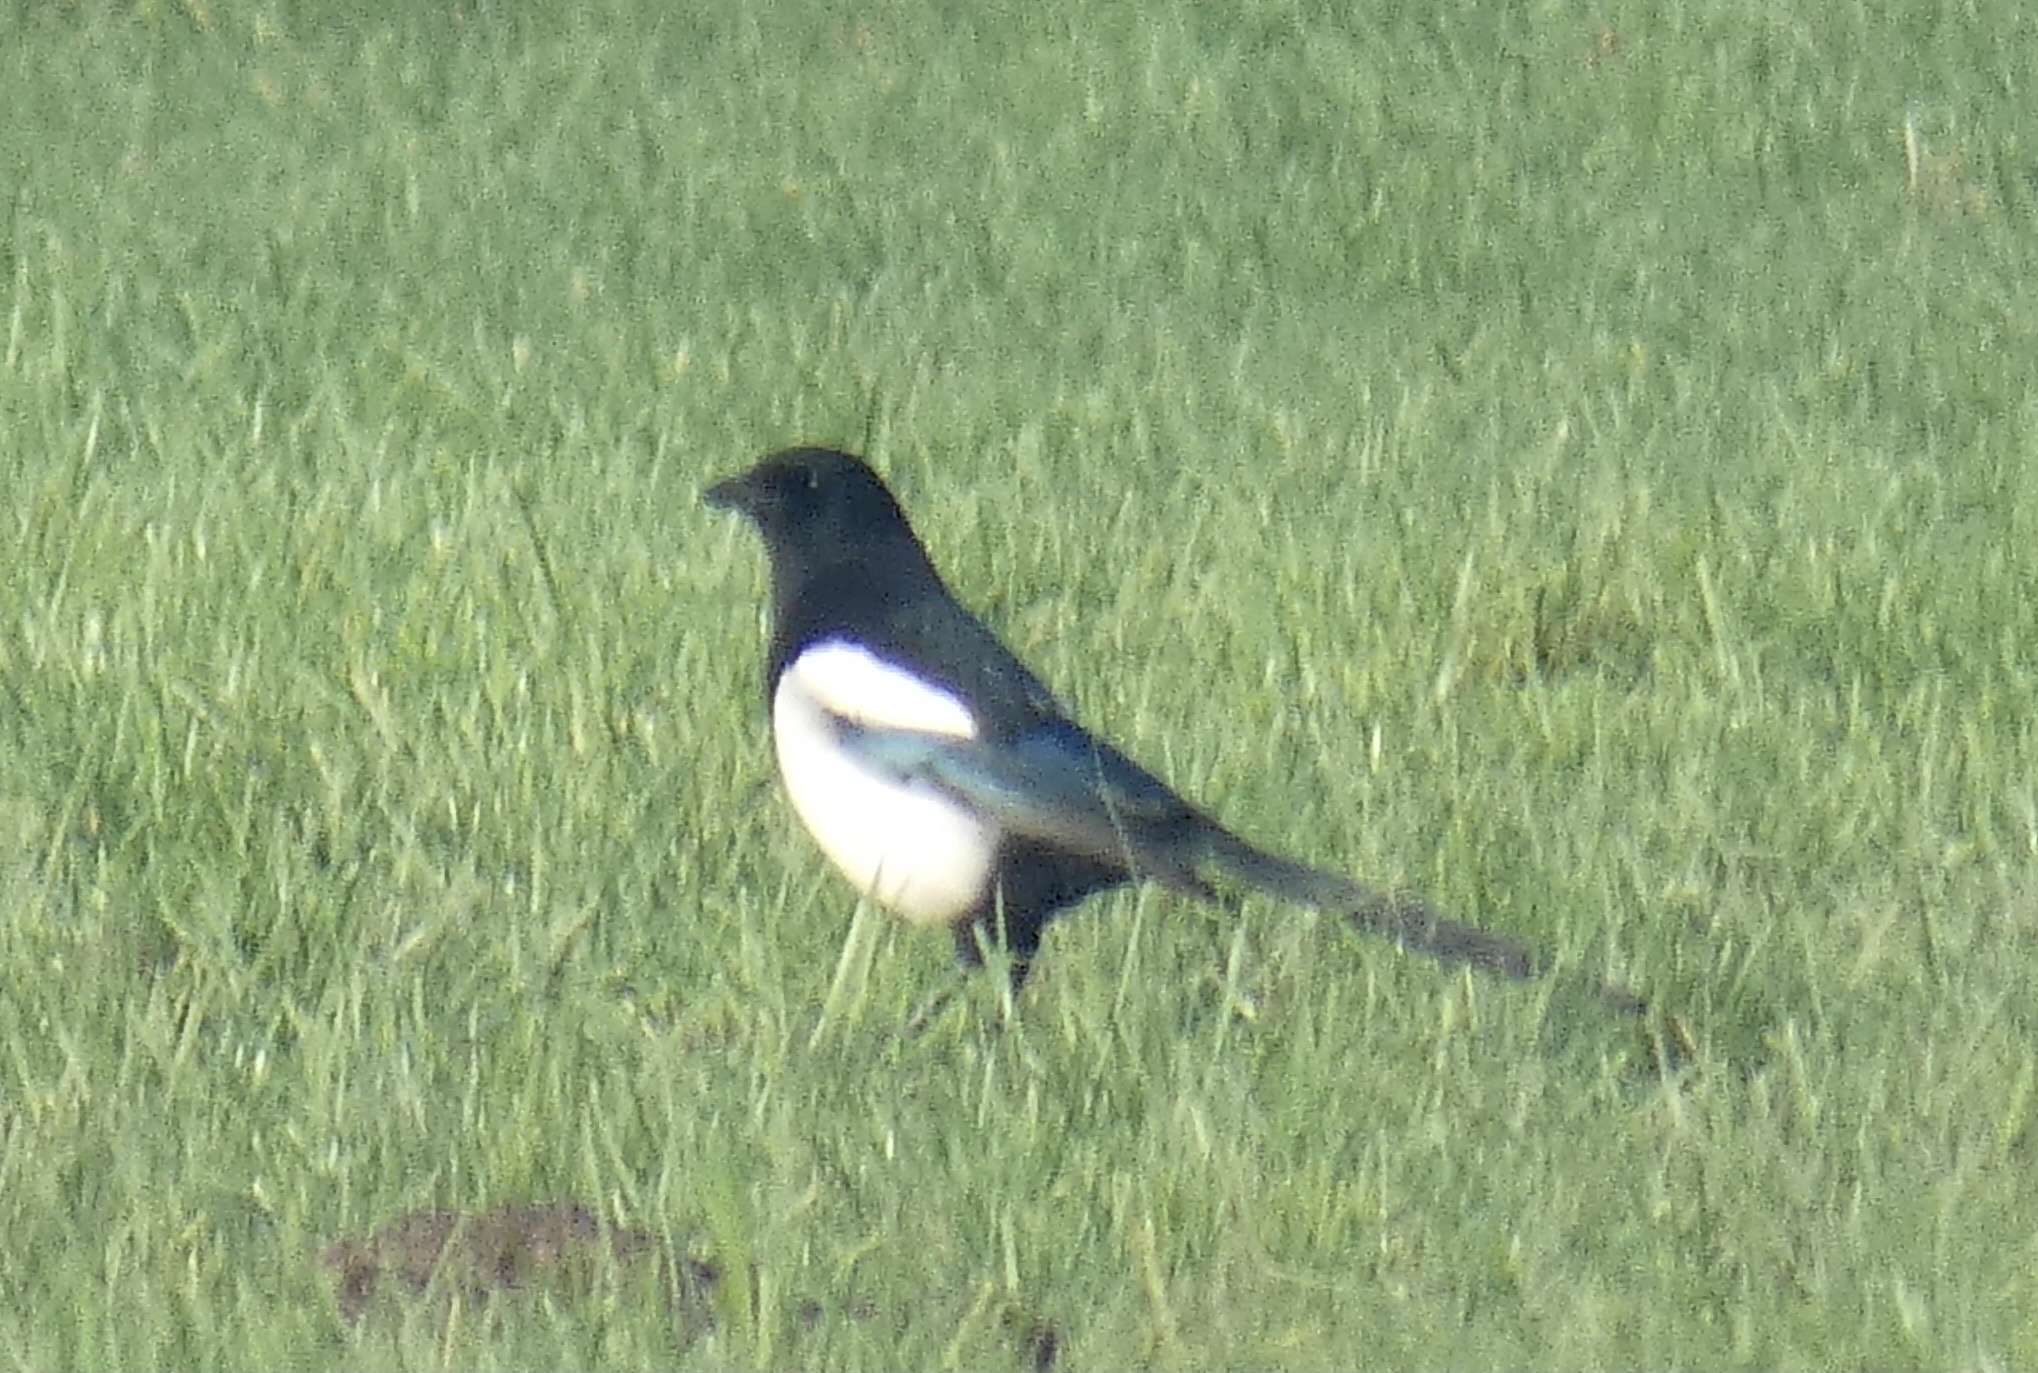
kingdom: Animalia
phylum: Chordata
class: Aves
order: Passeriformes
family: Corvidae
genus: Pica
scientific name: Pica pica
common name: Eurasian magpie
